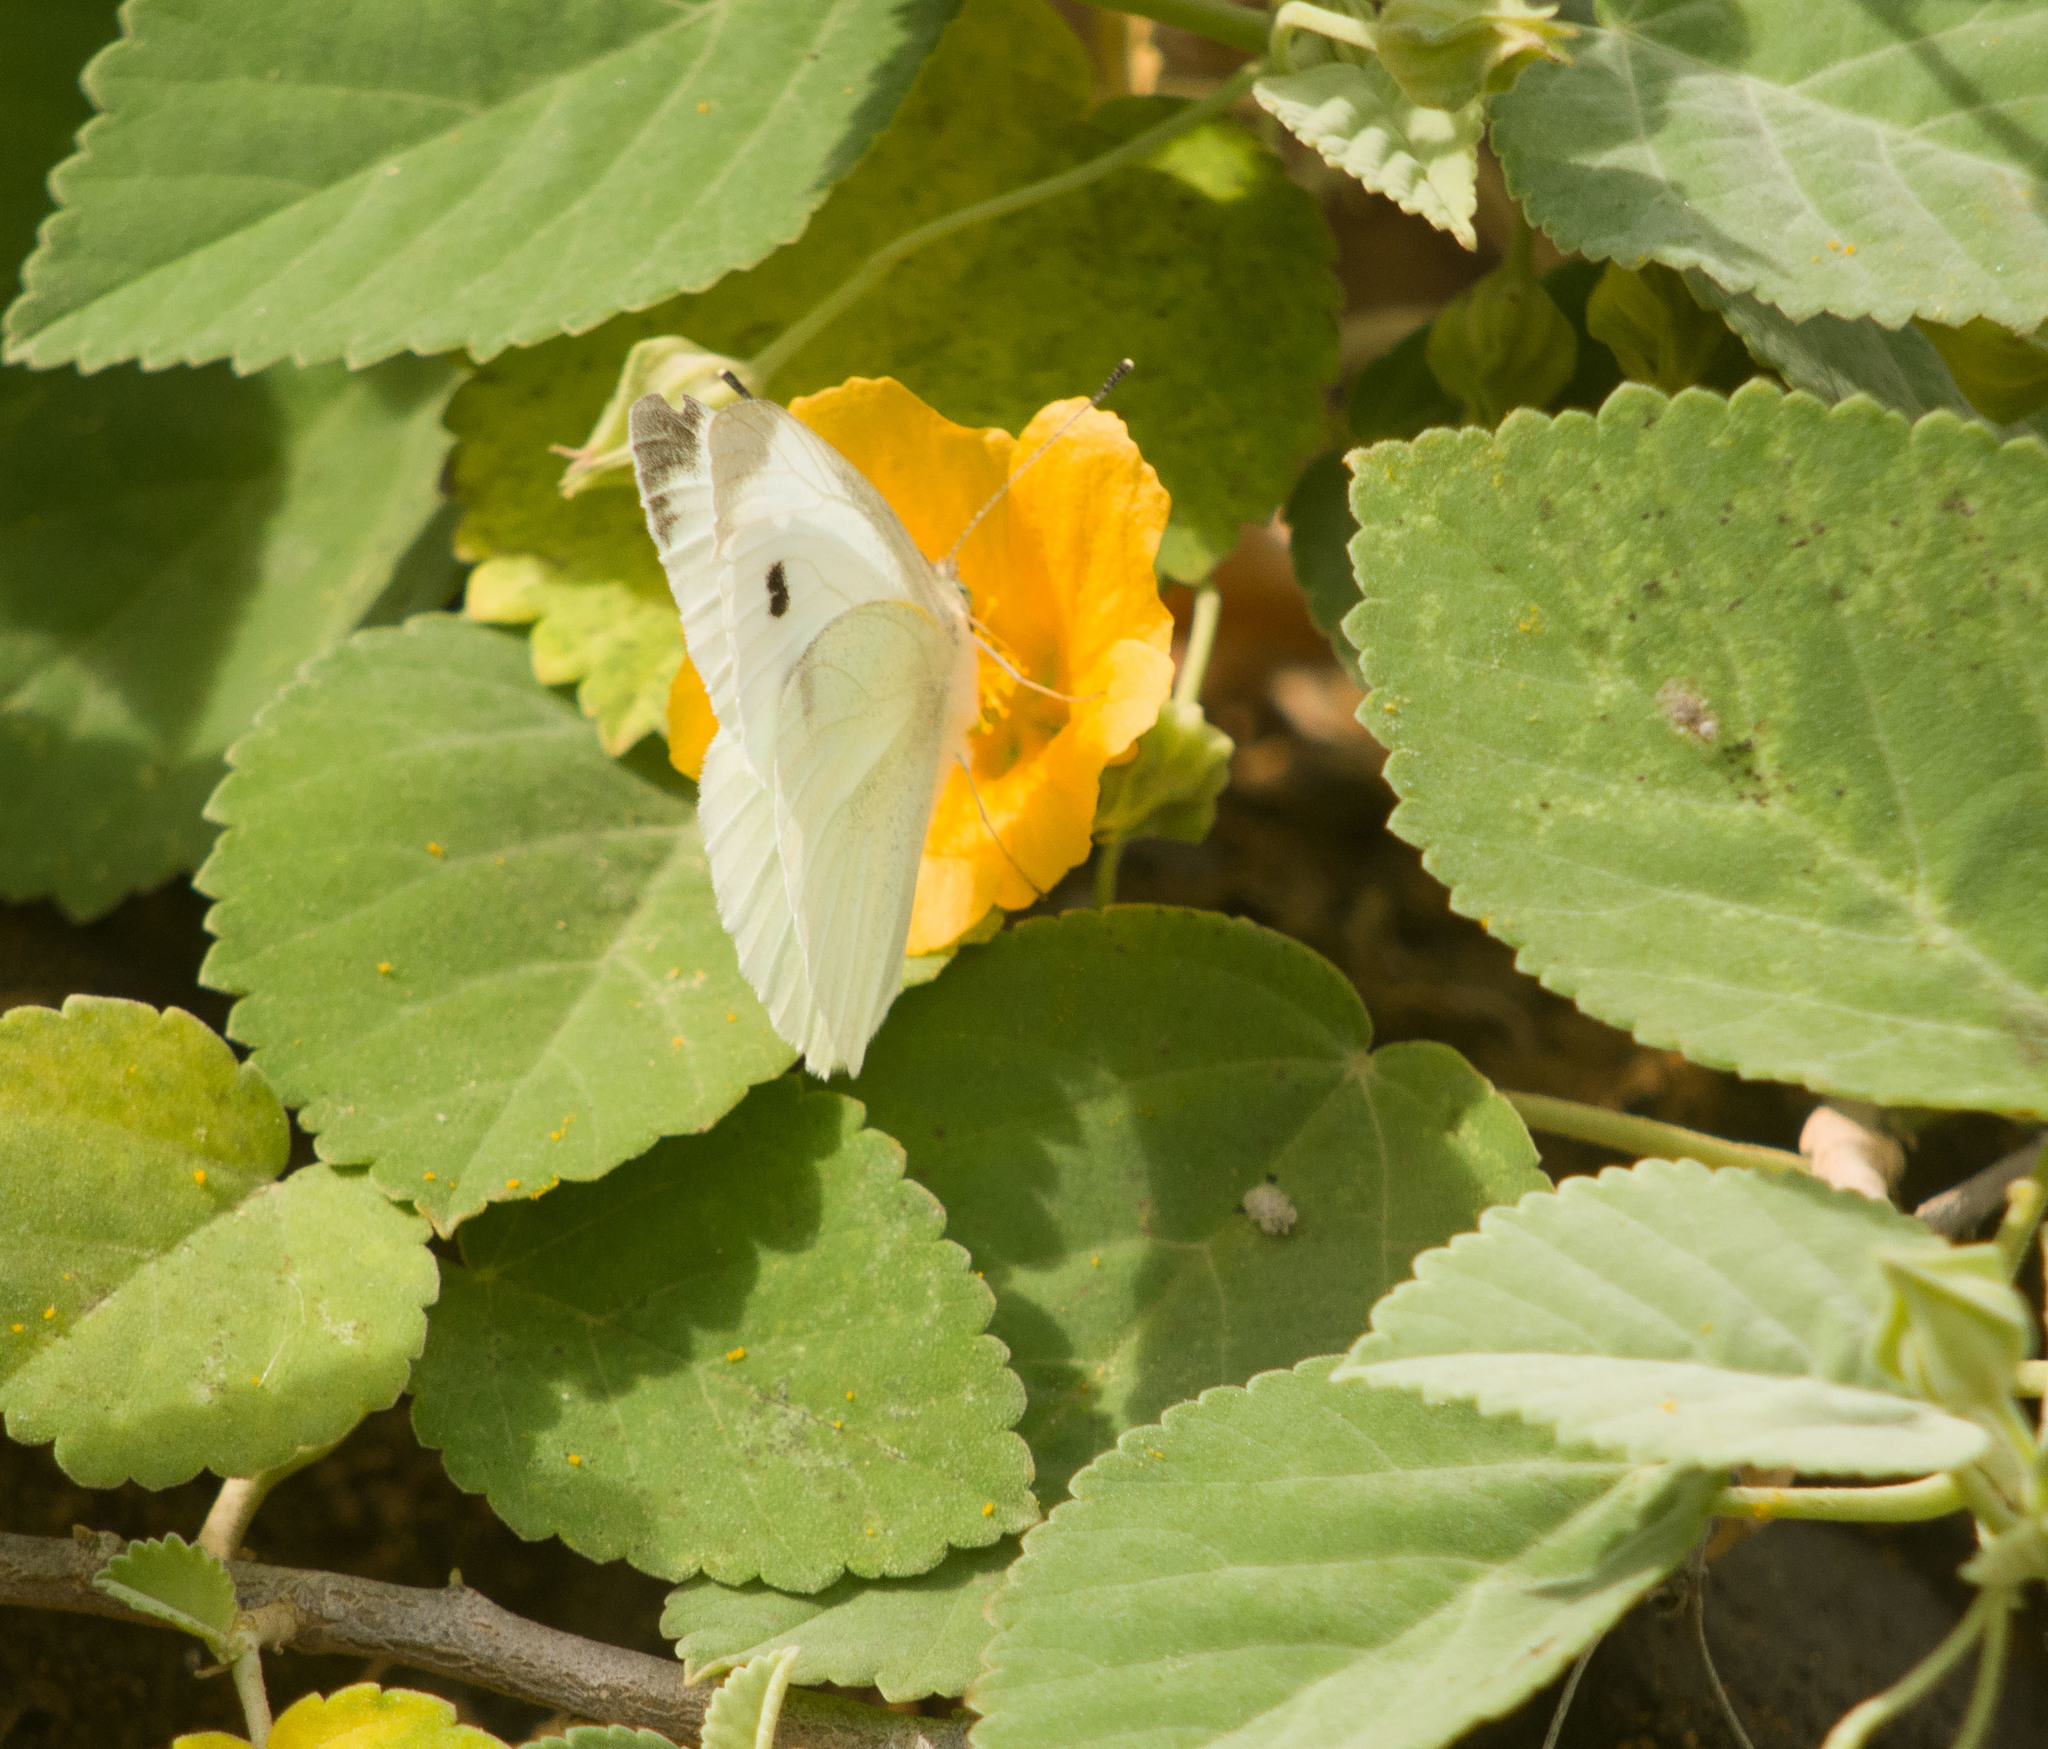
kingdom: Animalia
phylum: Arthropoda
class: Insecta
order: Lepidoptera
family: Pieridae
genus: Pieris
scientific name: Pieris rapae
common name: Small white
